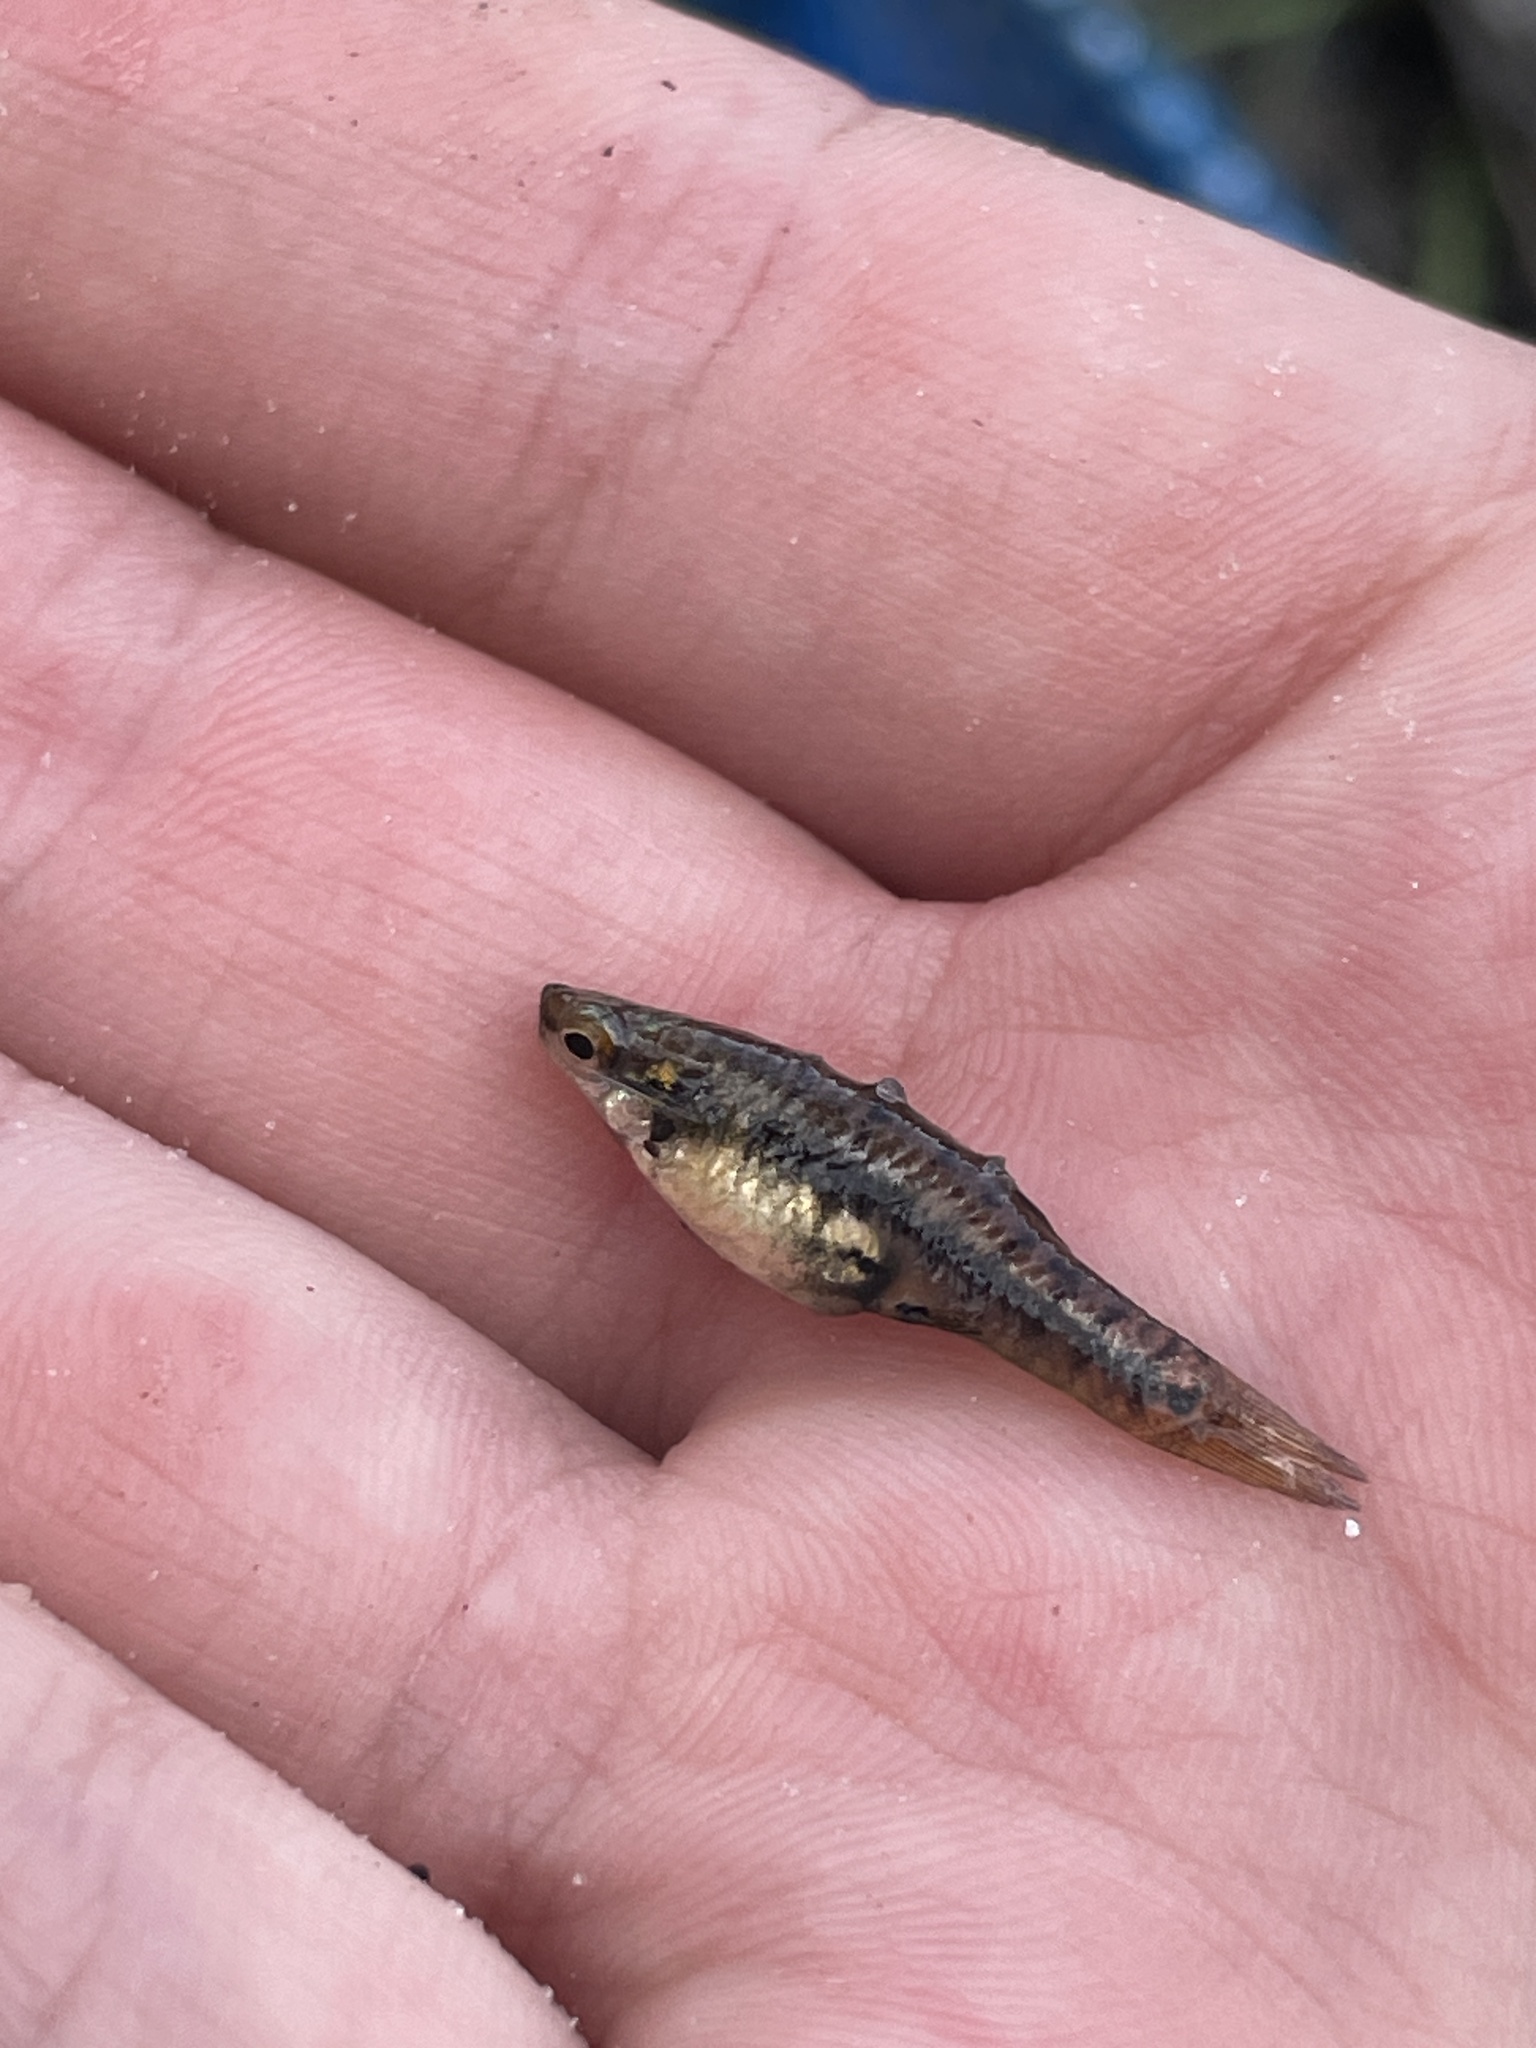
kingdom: Animalia
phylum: Chordata
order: Cyprinodontiformes
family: Poeciliidae
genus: Heterandria
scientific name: Heterandria formosa
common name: Least killifish
